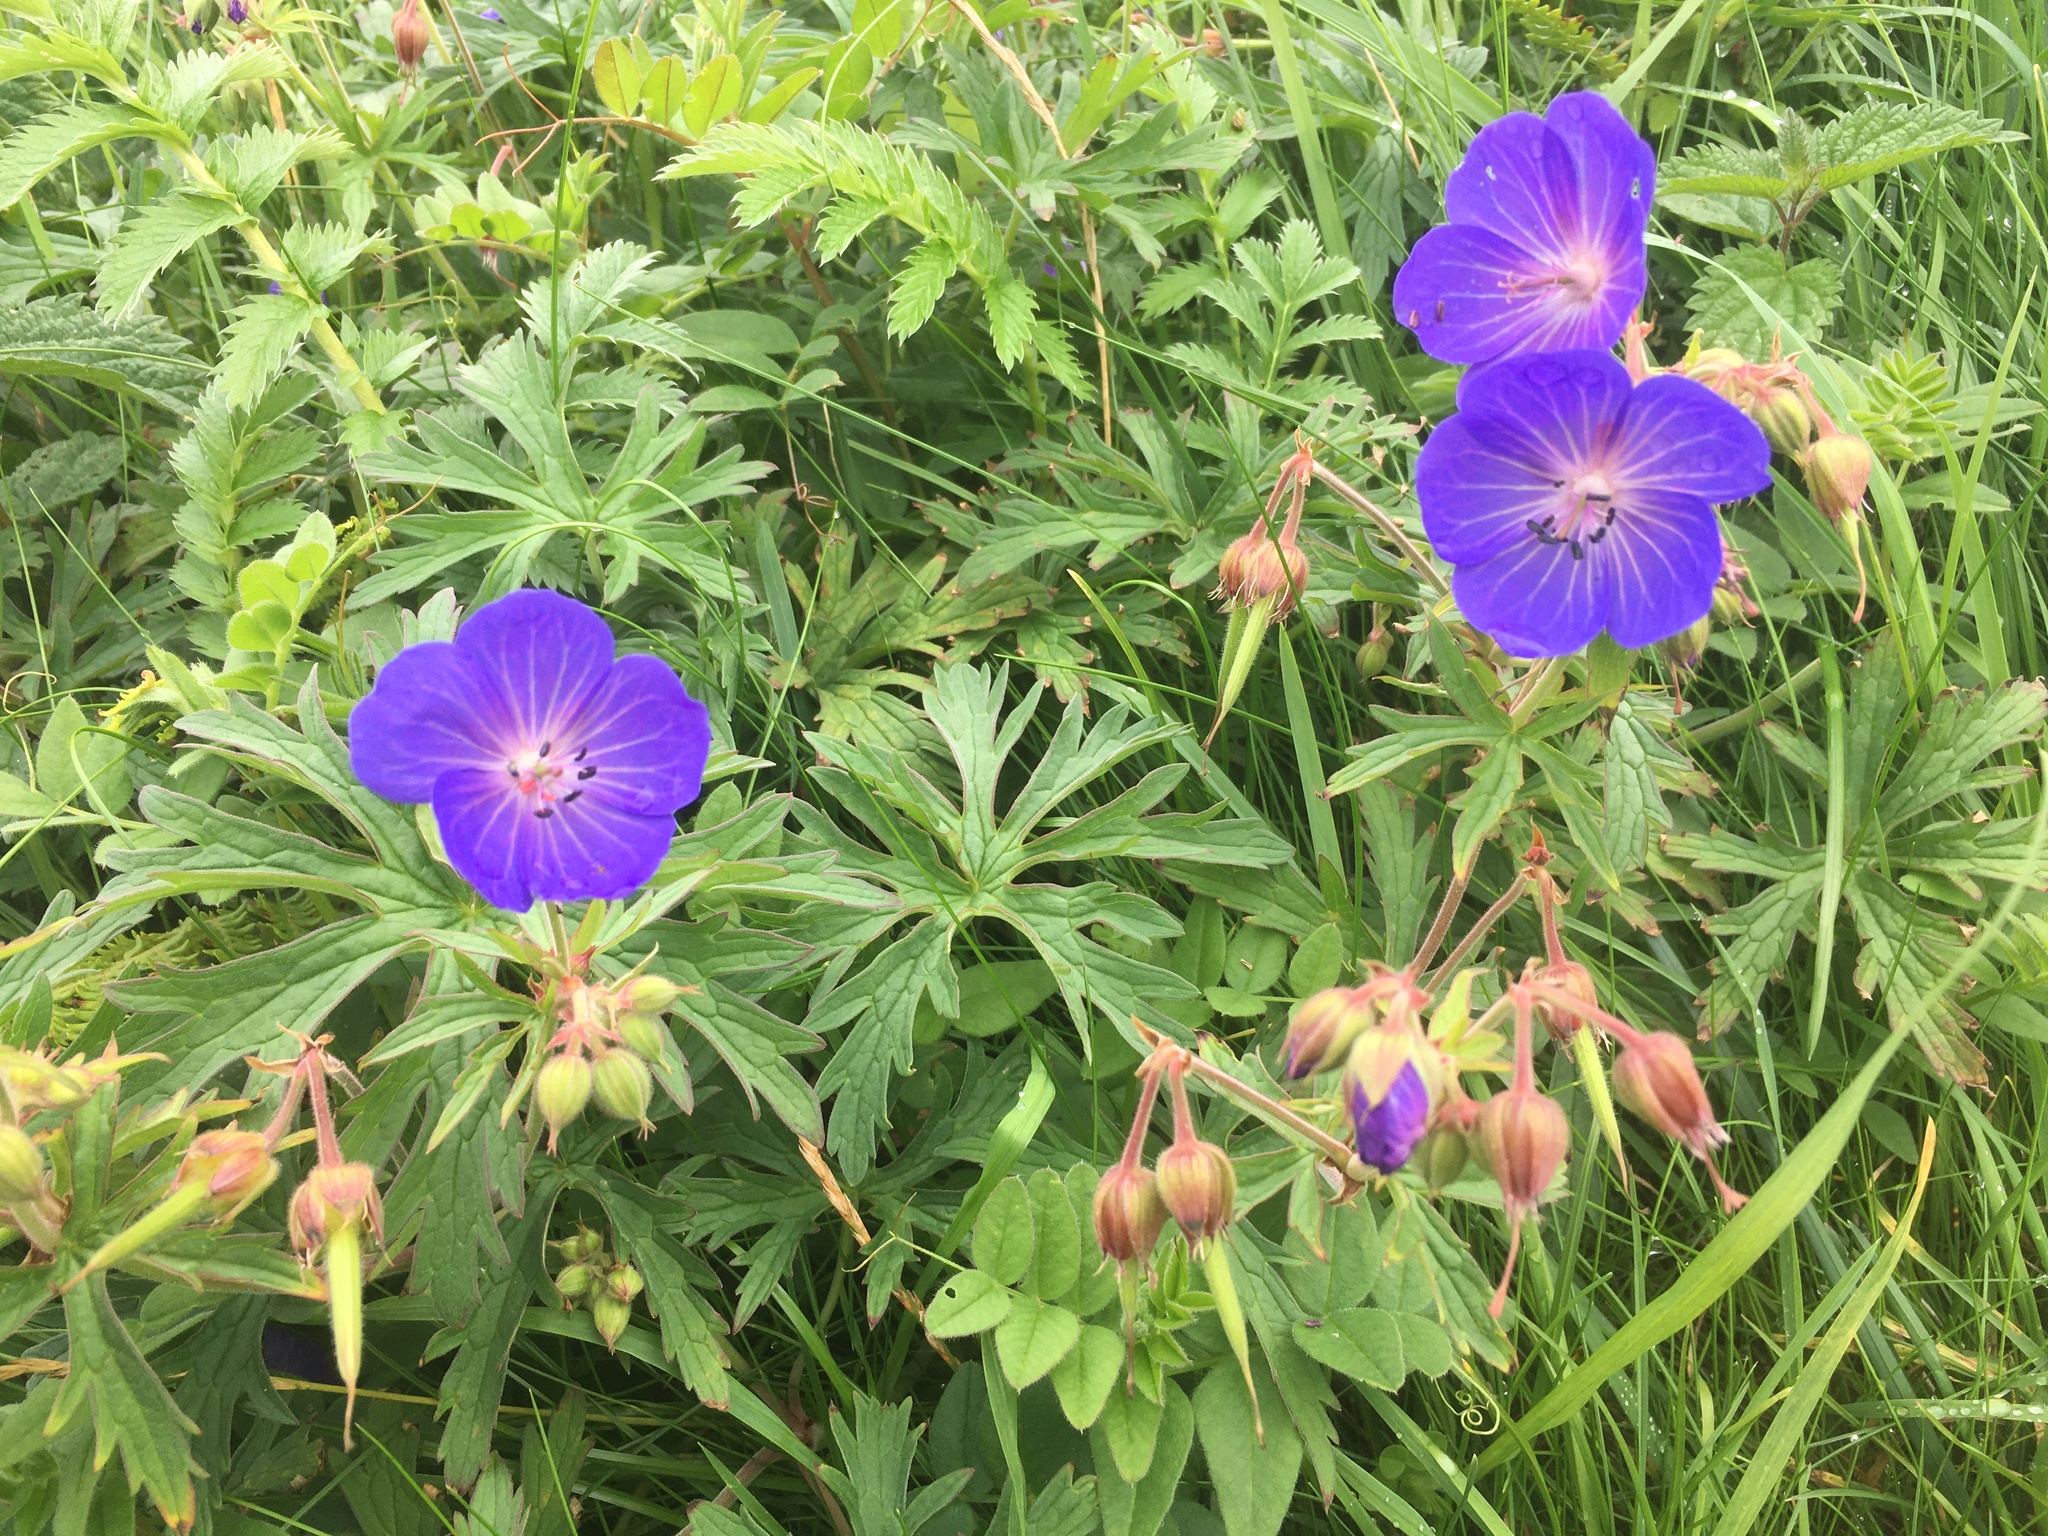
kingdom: Plantae
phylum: Tracheophyta
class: Magnoliopsida
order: Geraniales
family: Geraniaceae
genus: Geranium
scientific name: Geranium pratense
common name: Meadow crane's-bill
